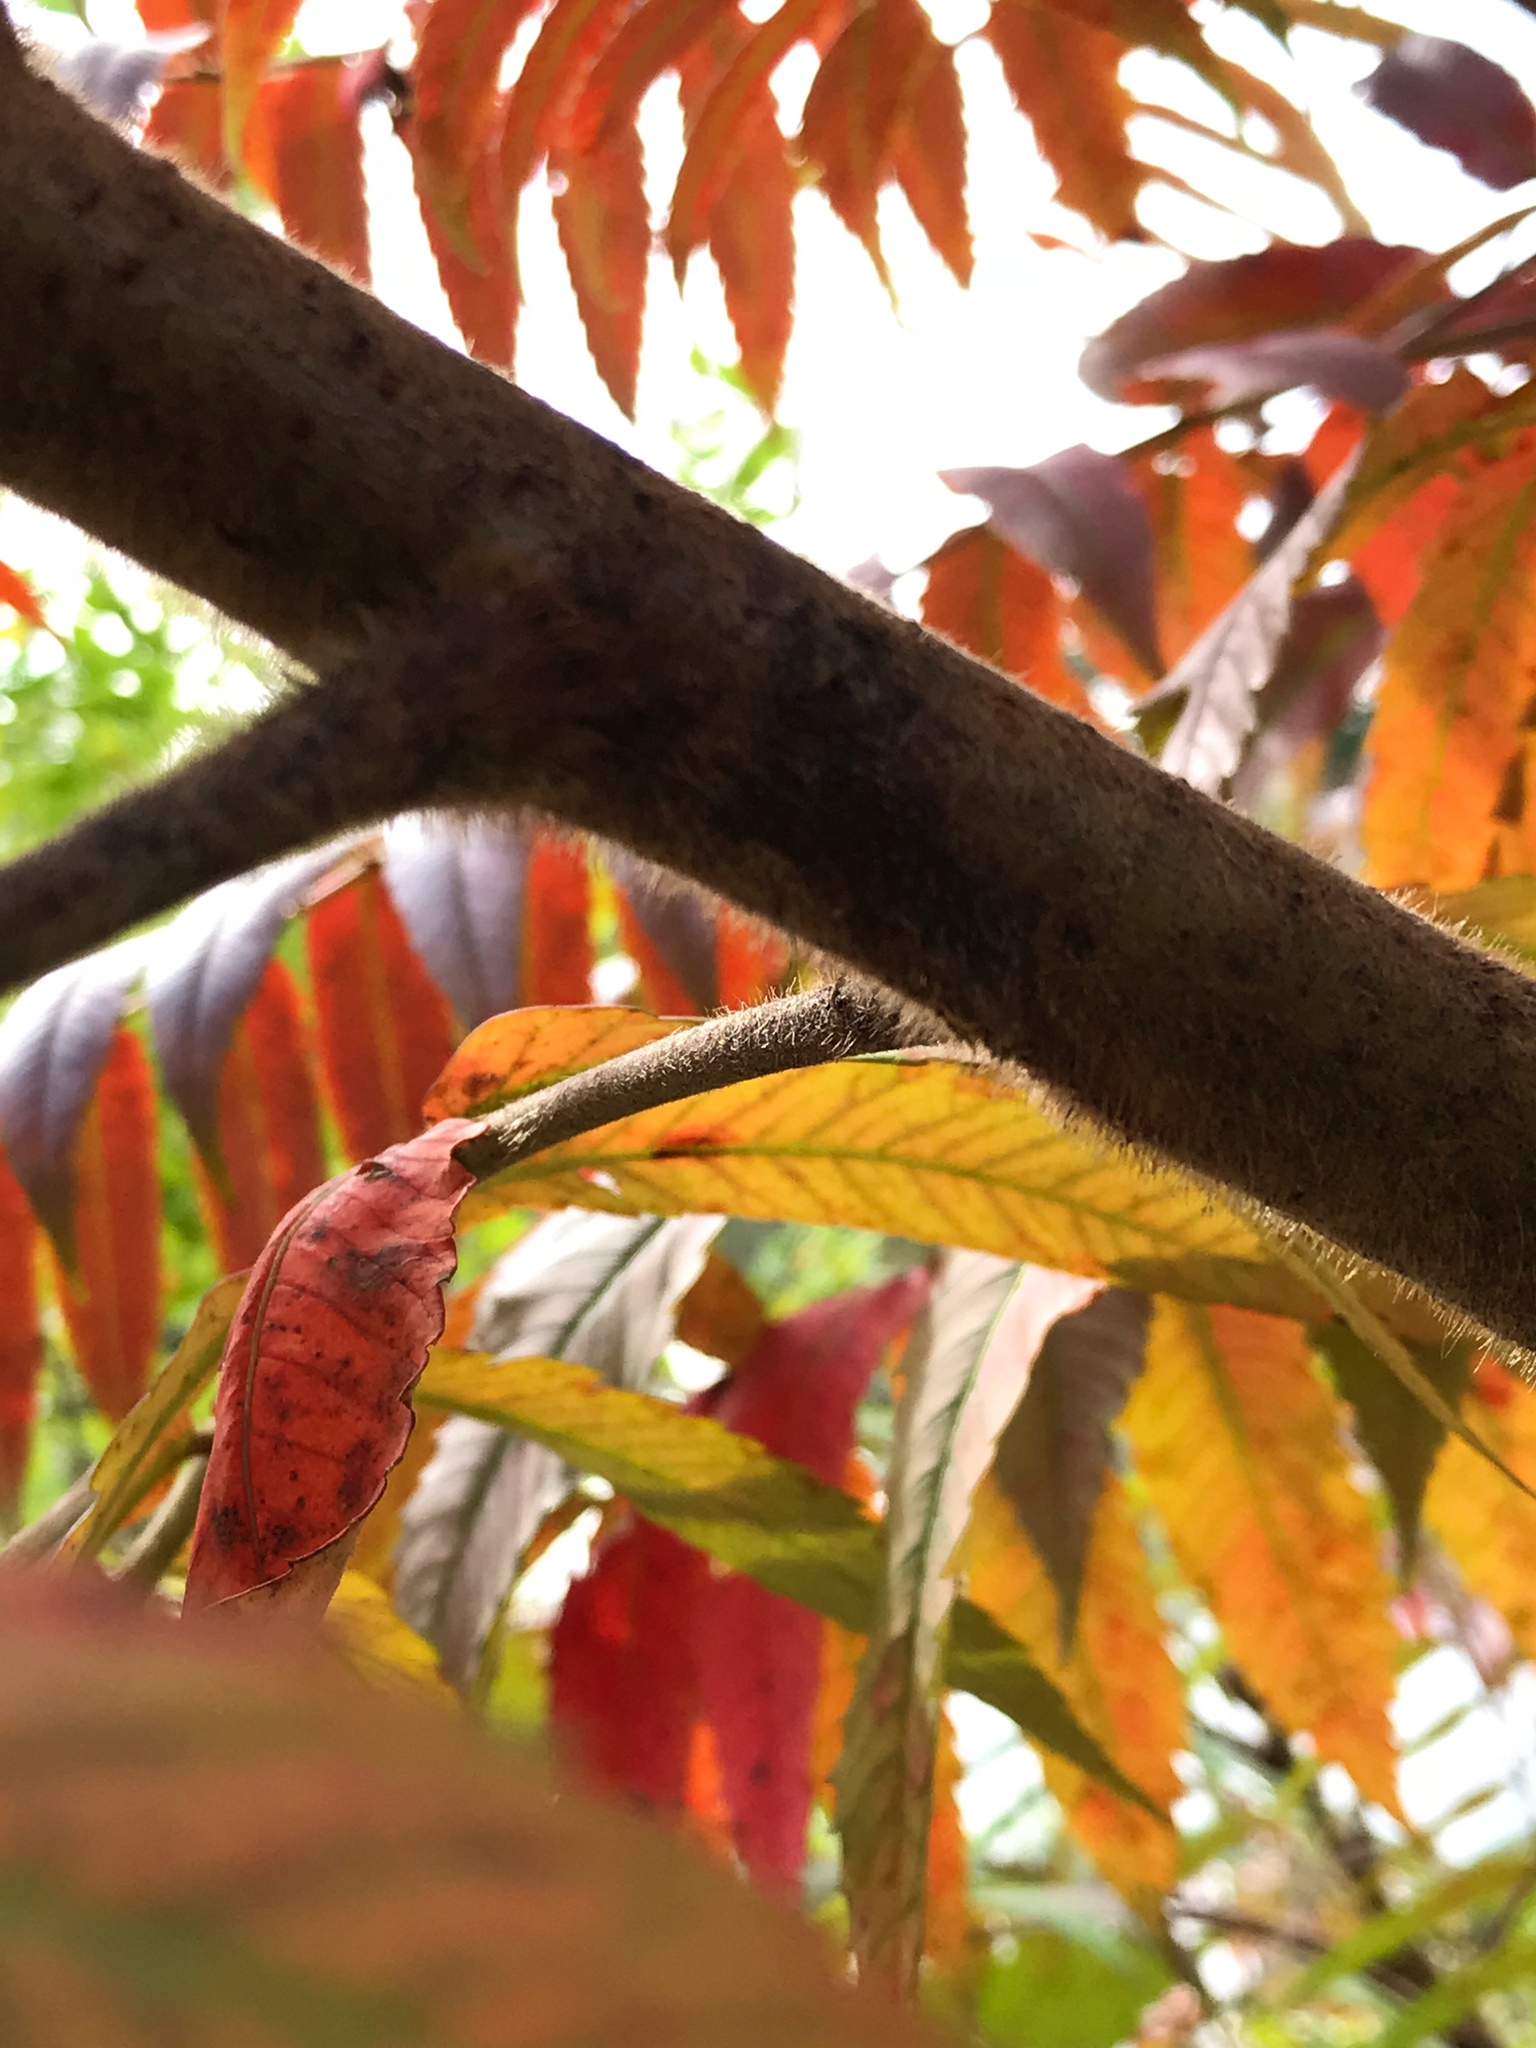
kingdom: Plantae
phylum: Tracheophyta
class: Magnoliopsida
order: Sapindales
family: Anacardiaceae
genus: Rhus
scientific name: Rhus typhina
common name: Staghorn sumac
